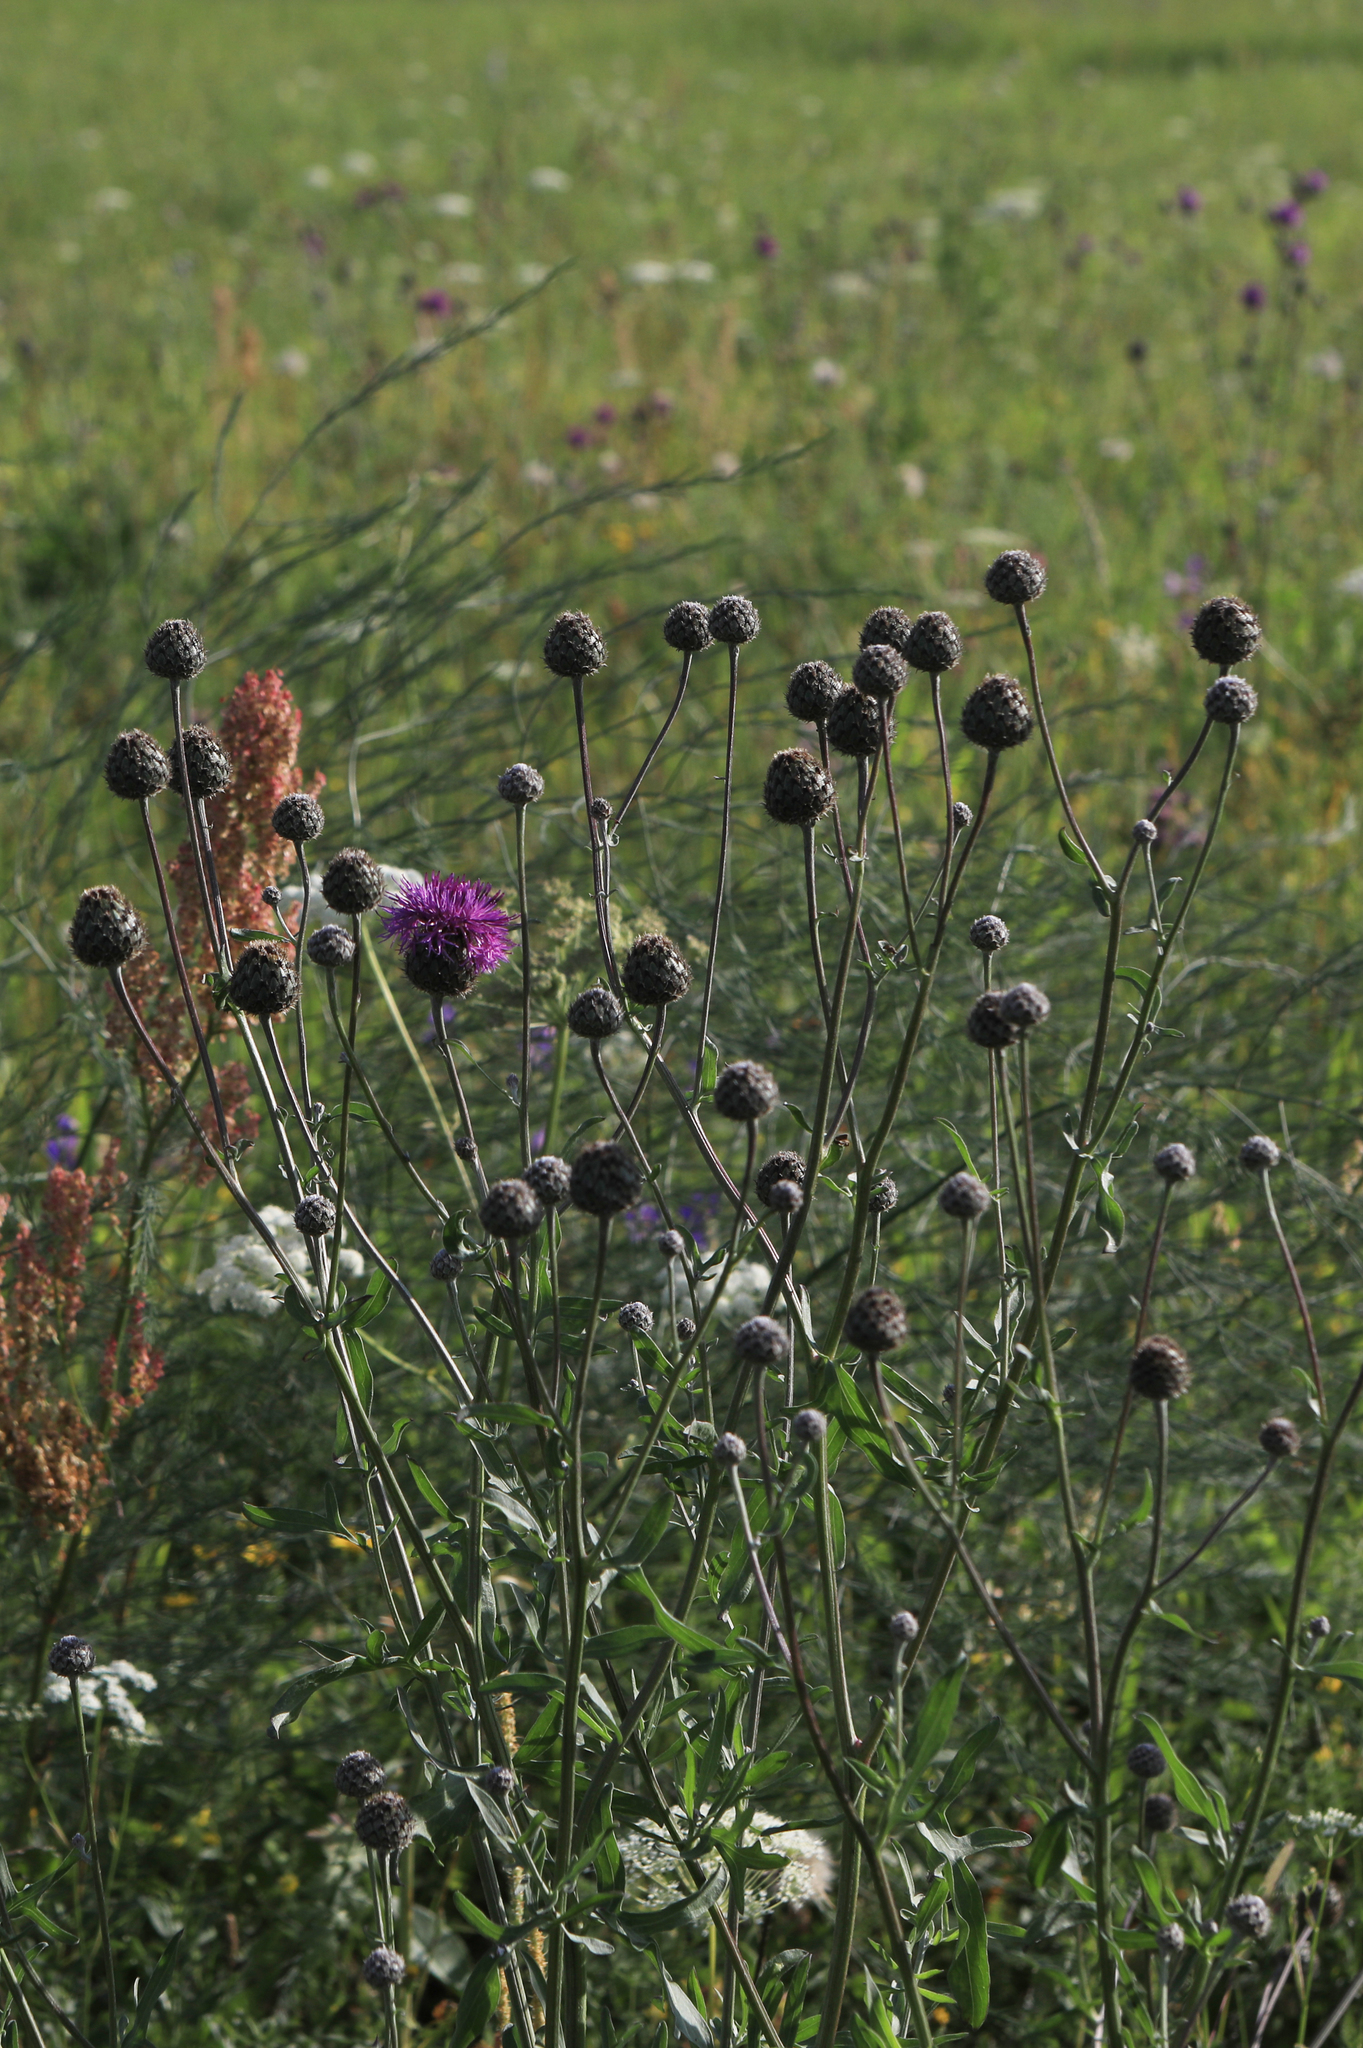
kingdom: Plantae
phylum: Tracheophyta
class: Magnoliopsida
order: Asterales
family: Asteraceae
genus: Centaurea
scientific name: Centaurea scabiosa
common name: Greater knapweed
